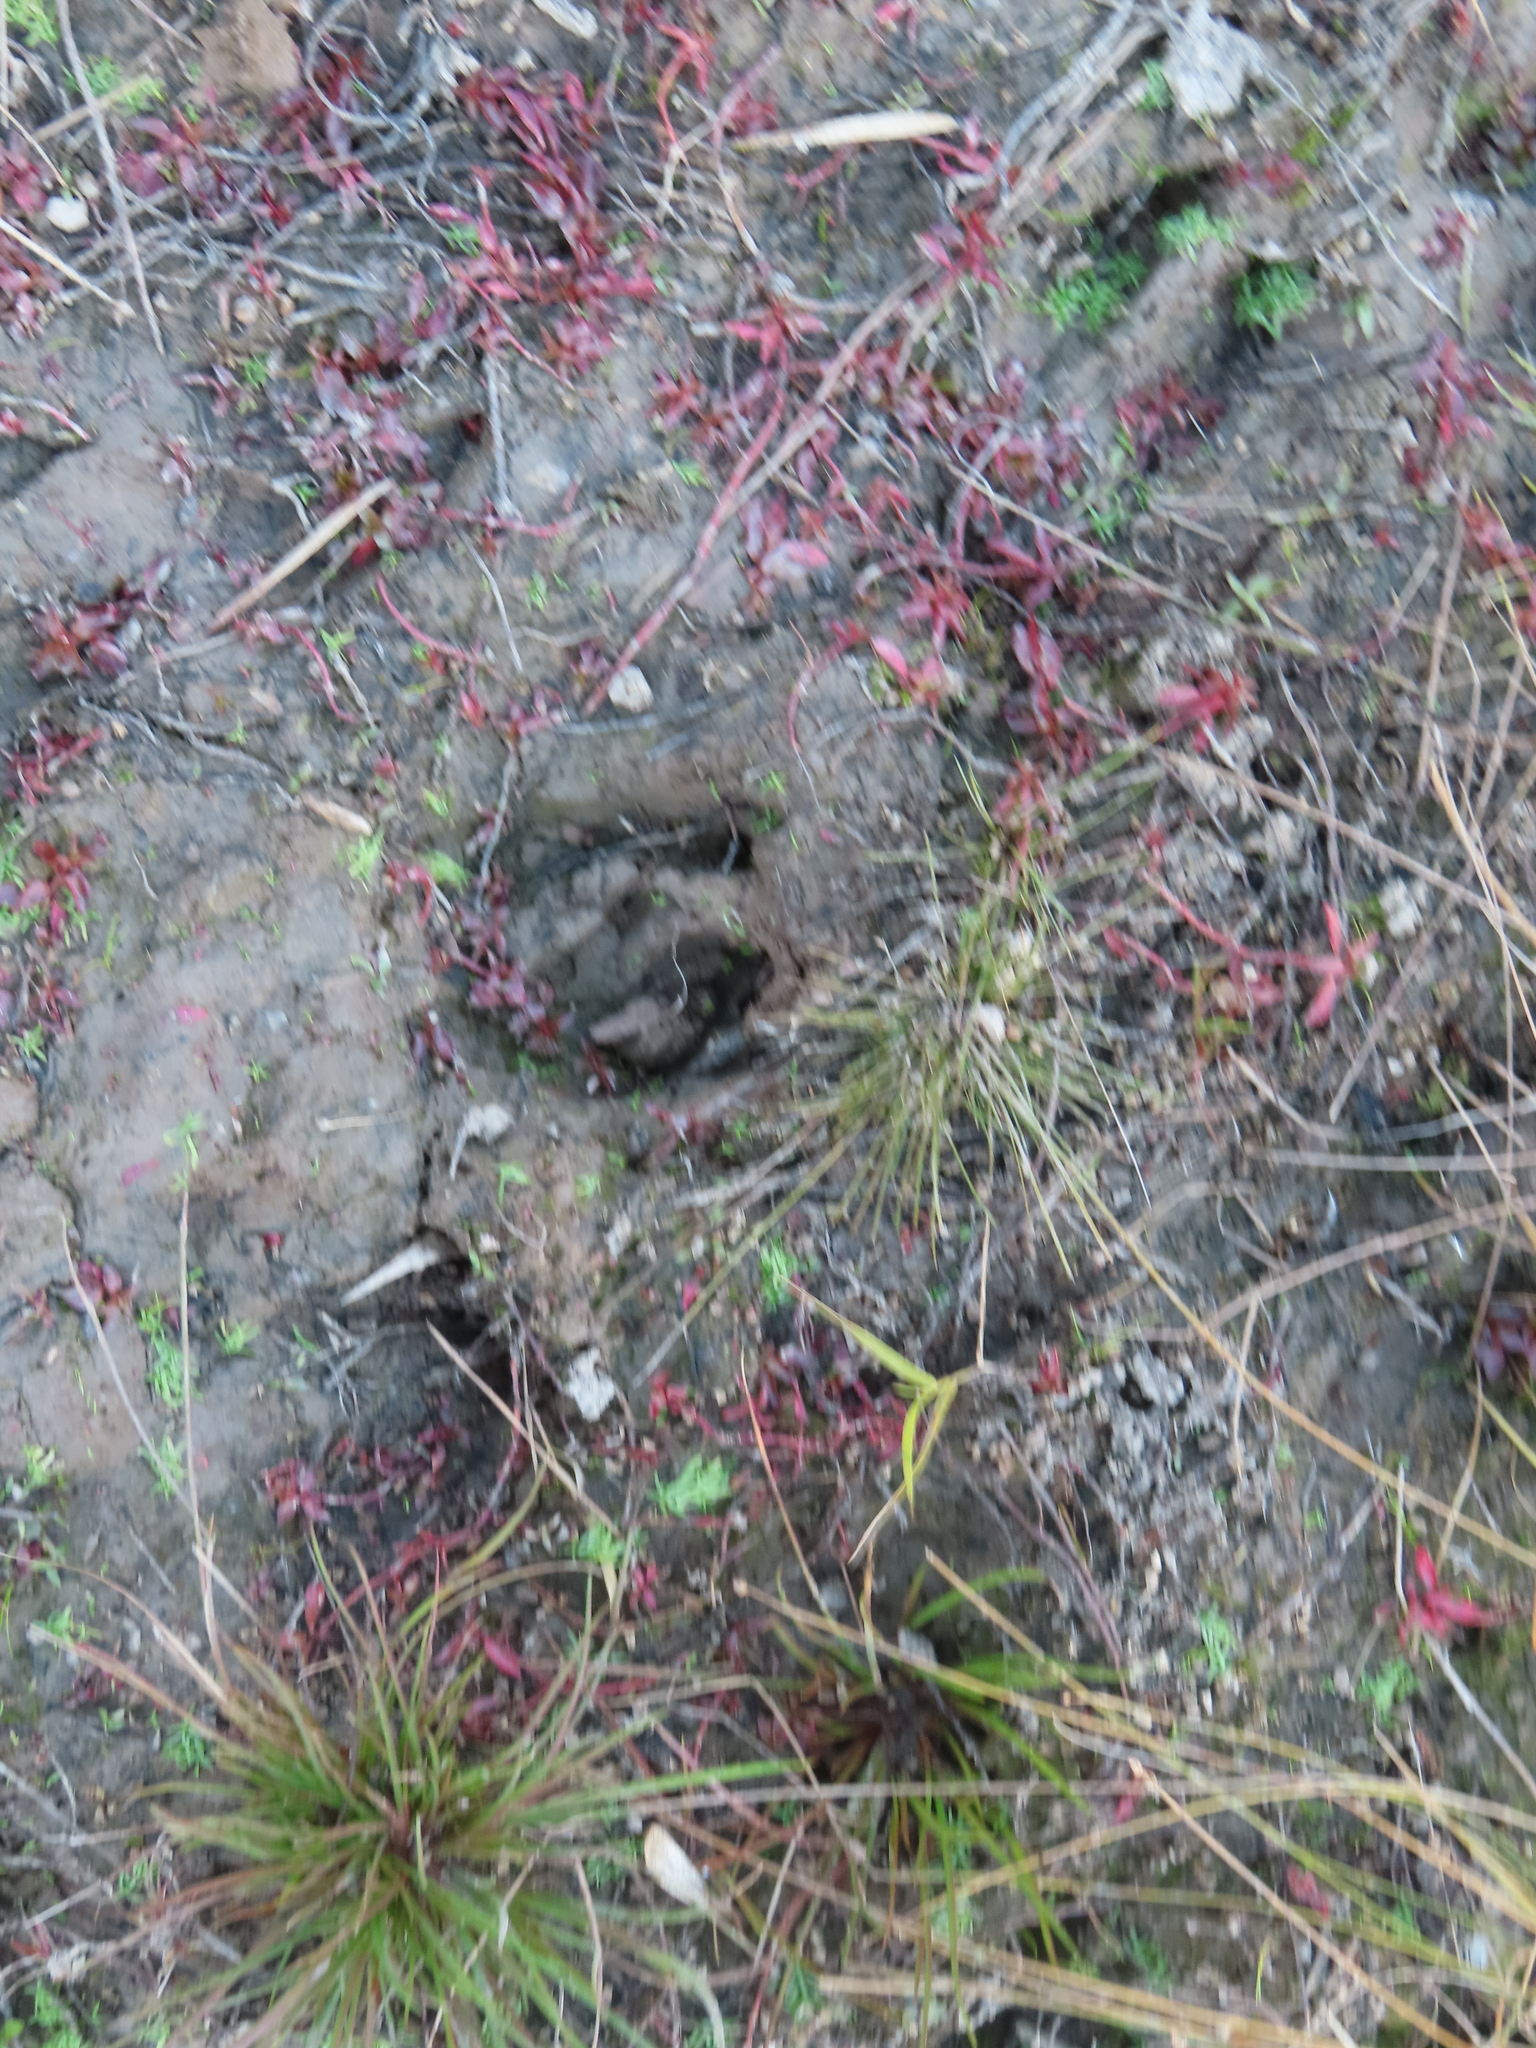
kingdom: Animalia
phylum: Chordata
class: Mammalia
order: Artiodactyla
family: Cervidae
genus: Odocoileus
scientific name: Odocoileus virginianus
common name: White-tailed deer
